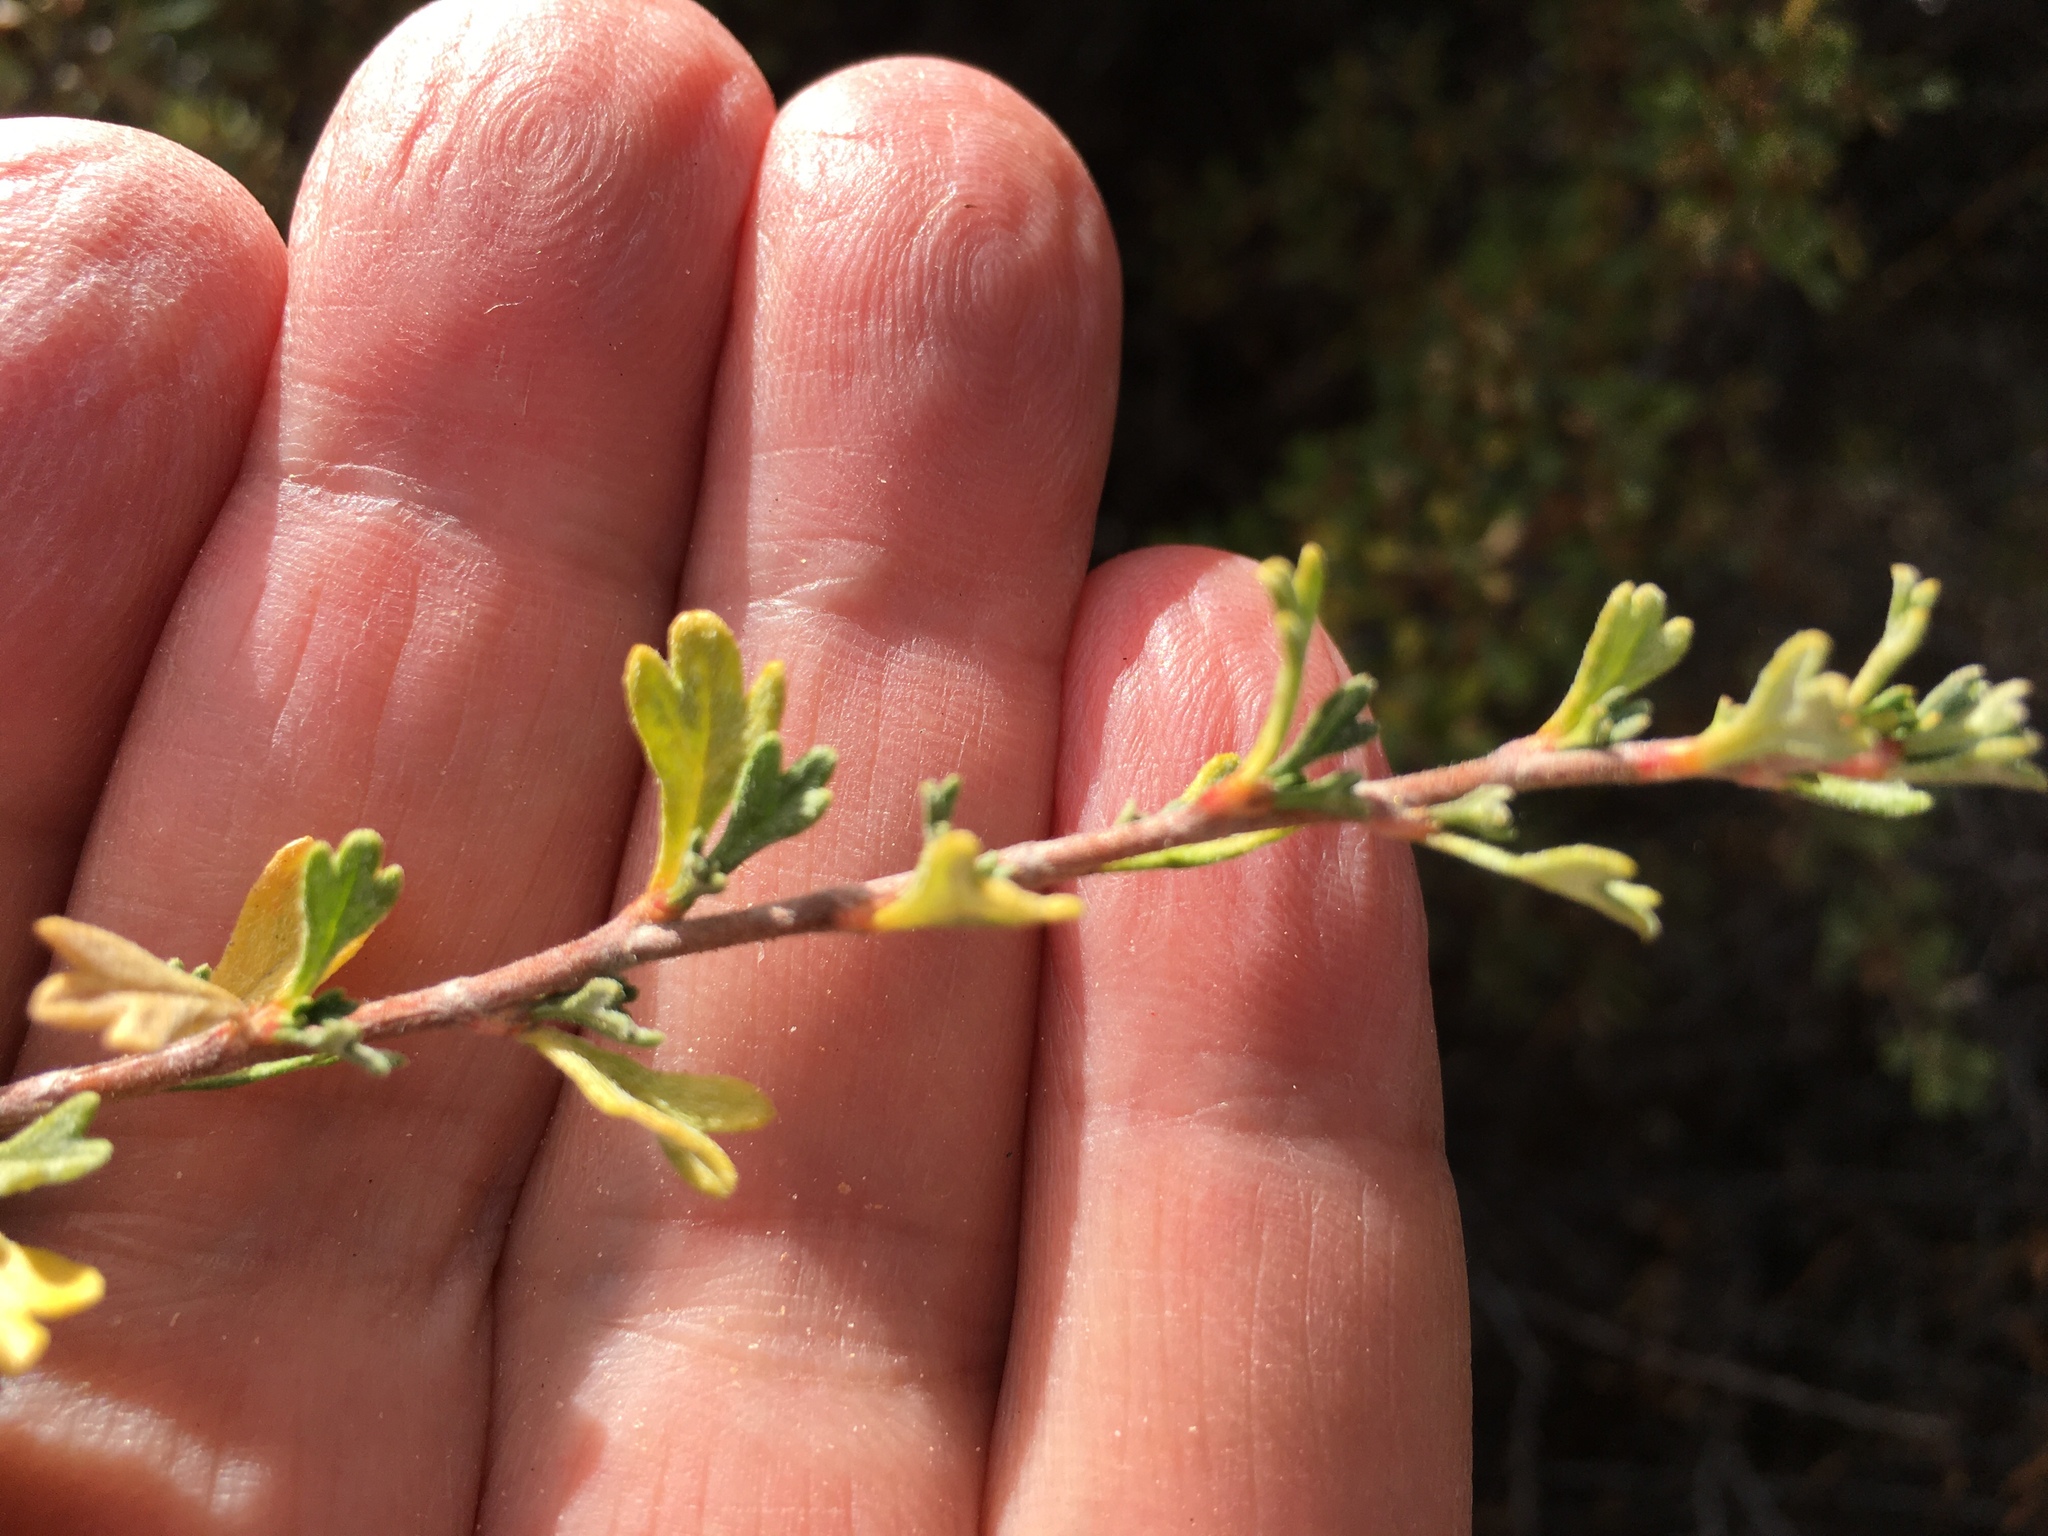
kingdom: Plantae
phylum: Tracheophyta
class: Magnoliopsida
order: Rosales
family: Rosaceae
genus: Purshia
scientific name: Purshia tridentata
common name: Antelope bitterbrush
